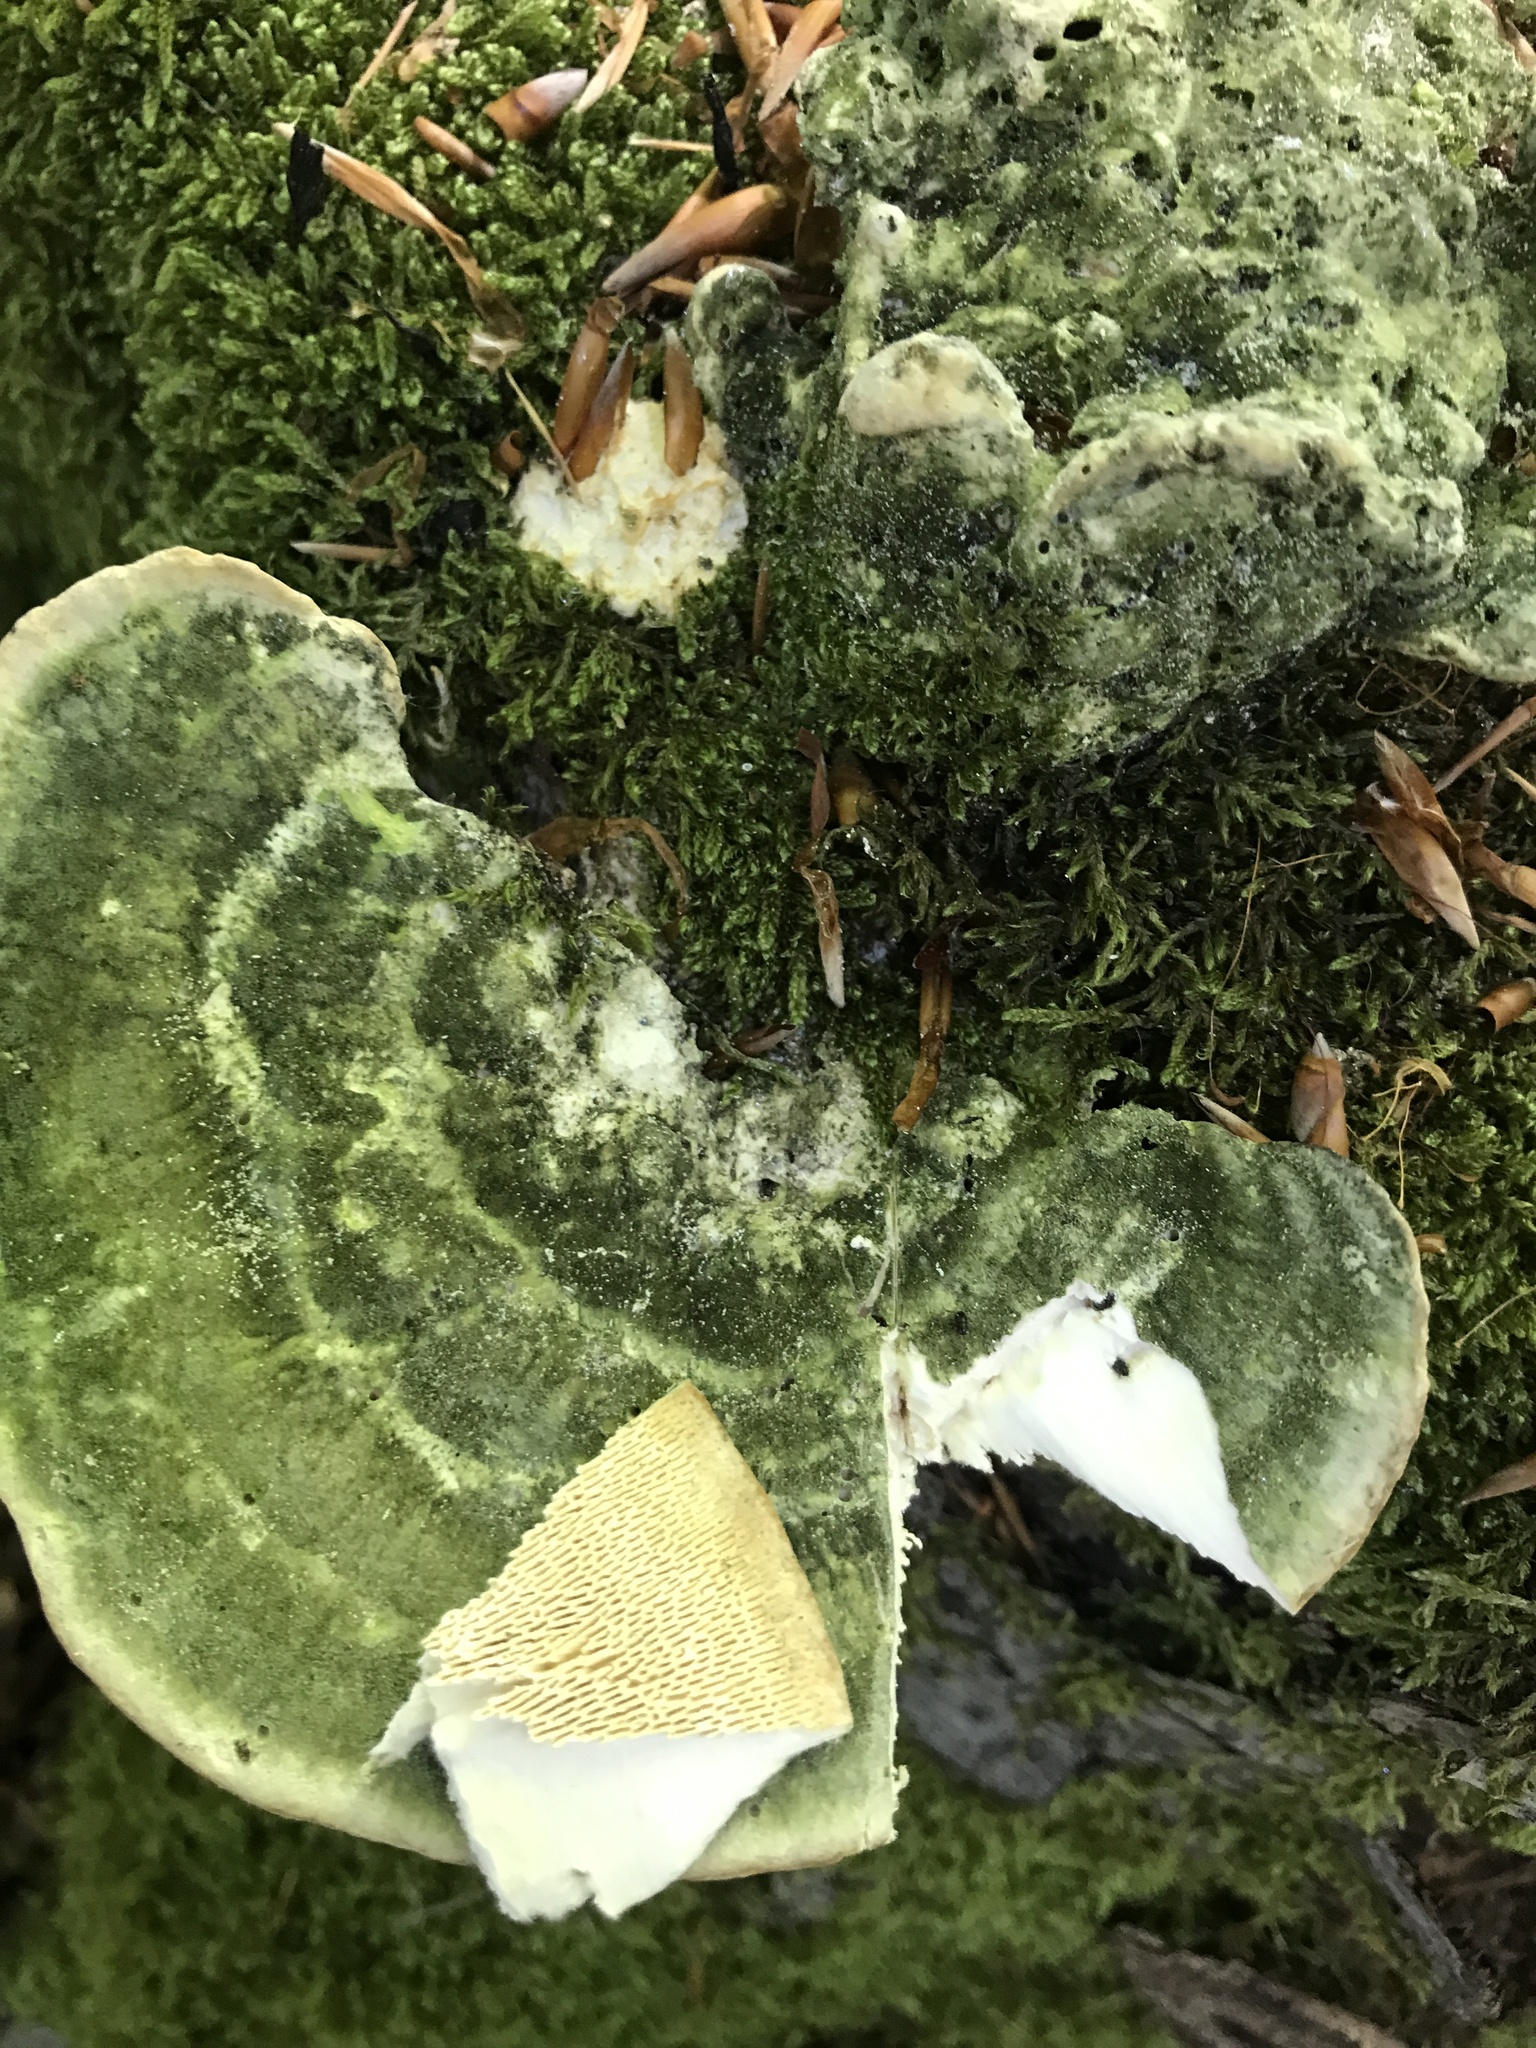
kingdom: Fungi
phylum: Basidiomycota
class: Agaricomycetes
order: Polyporales
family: Polyporaceae
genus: Trametes
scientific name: Trametes gibbosa
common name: Lumpy bracket
